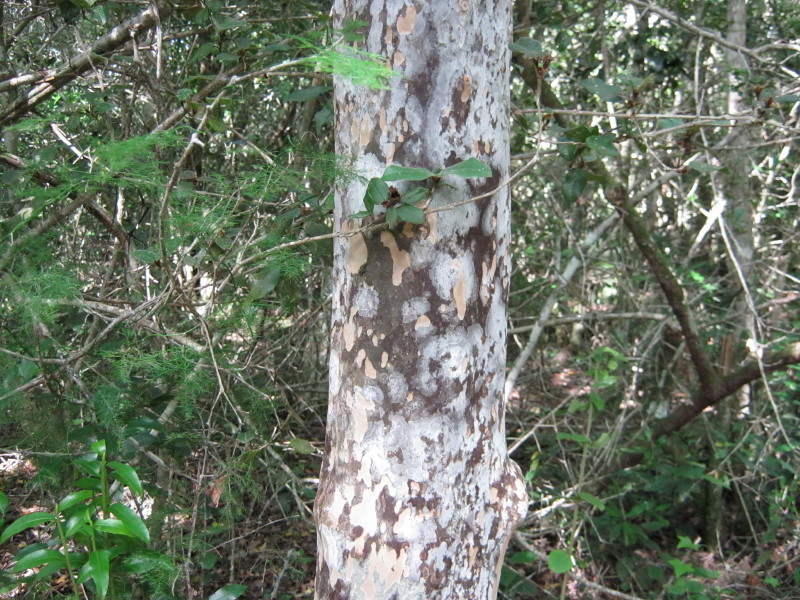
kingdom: Plantae
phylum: Tracheophyta
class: Magnoliopsida
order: Malpighiales
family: Ochnaceae
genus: Ochna
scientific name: Ochna arborea
